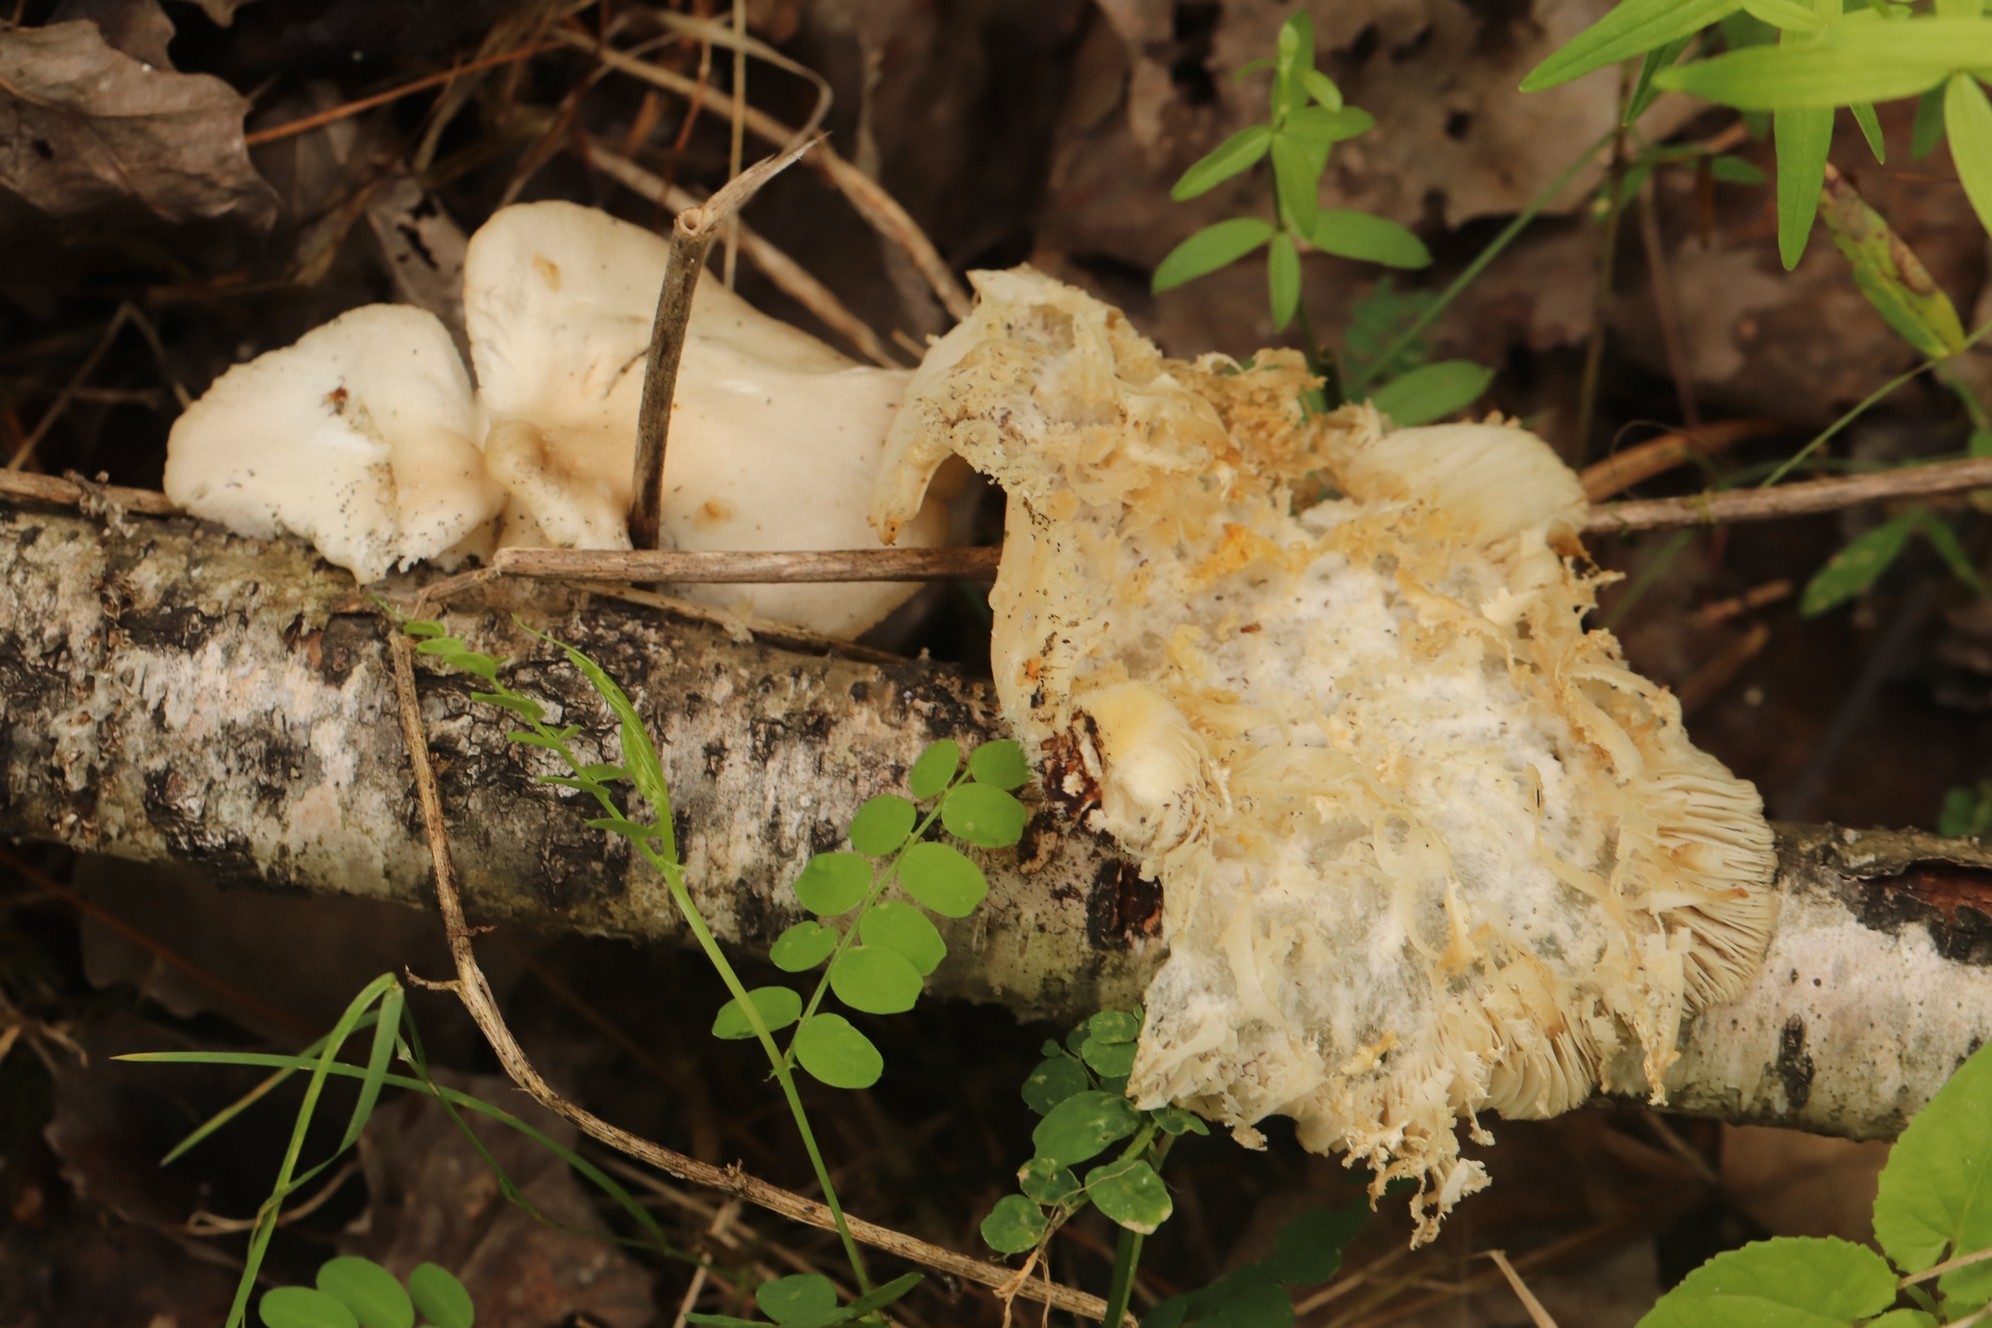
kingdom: Fungi
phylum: Basidiomycota
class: Agaricomycetes
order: Agaricales
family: Pleurotaceae
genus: Pleurotus
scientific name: Pleurotus pulmonarius
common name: Pale oyster
